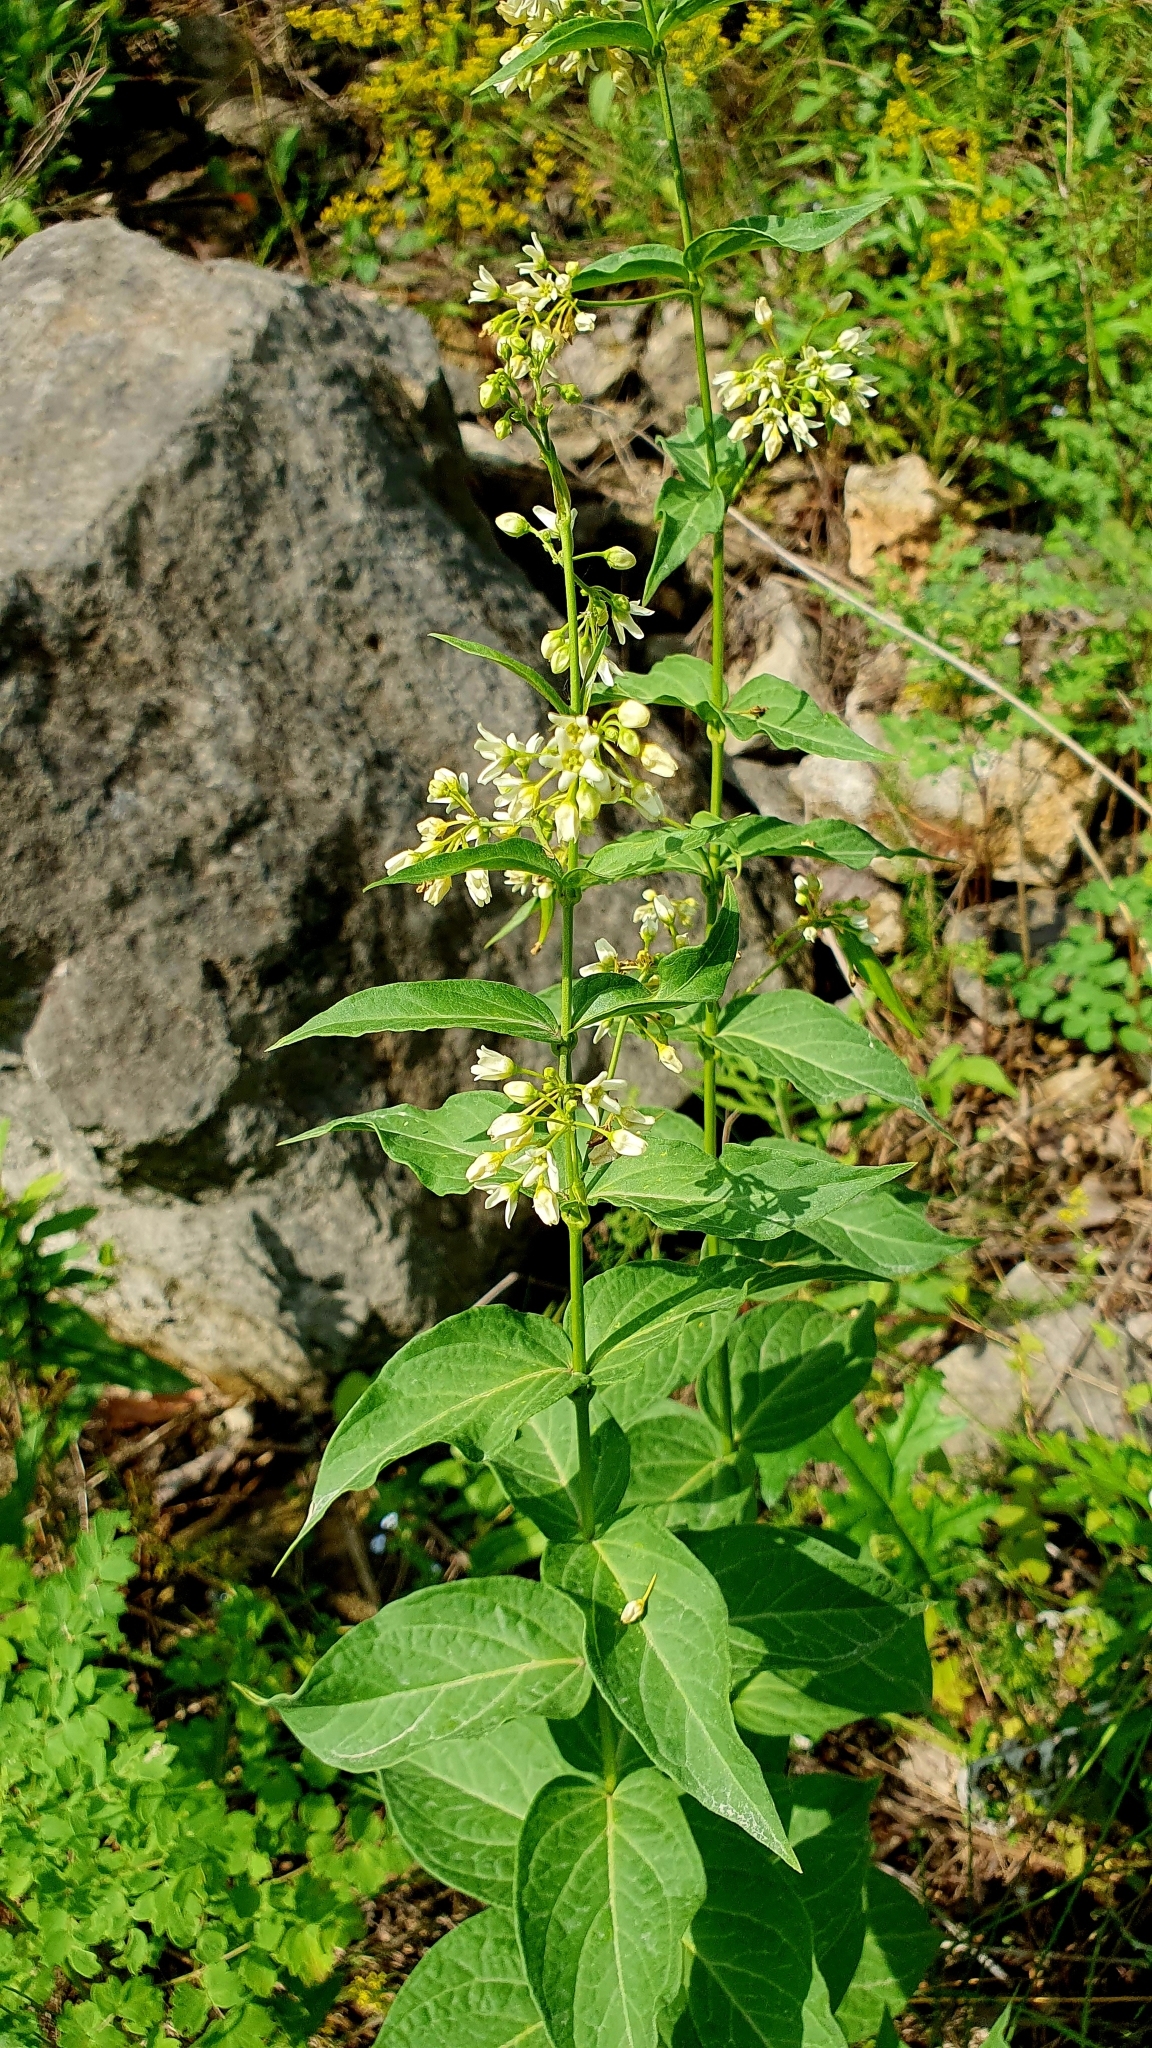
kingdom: Plantae
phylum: Tracheophyta
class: Magnoliopsida
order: Gentianales
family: Apocynaceae
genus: Vincetoxicum
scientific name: Vincetoxicum hirundinaria
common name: White swallowwort
